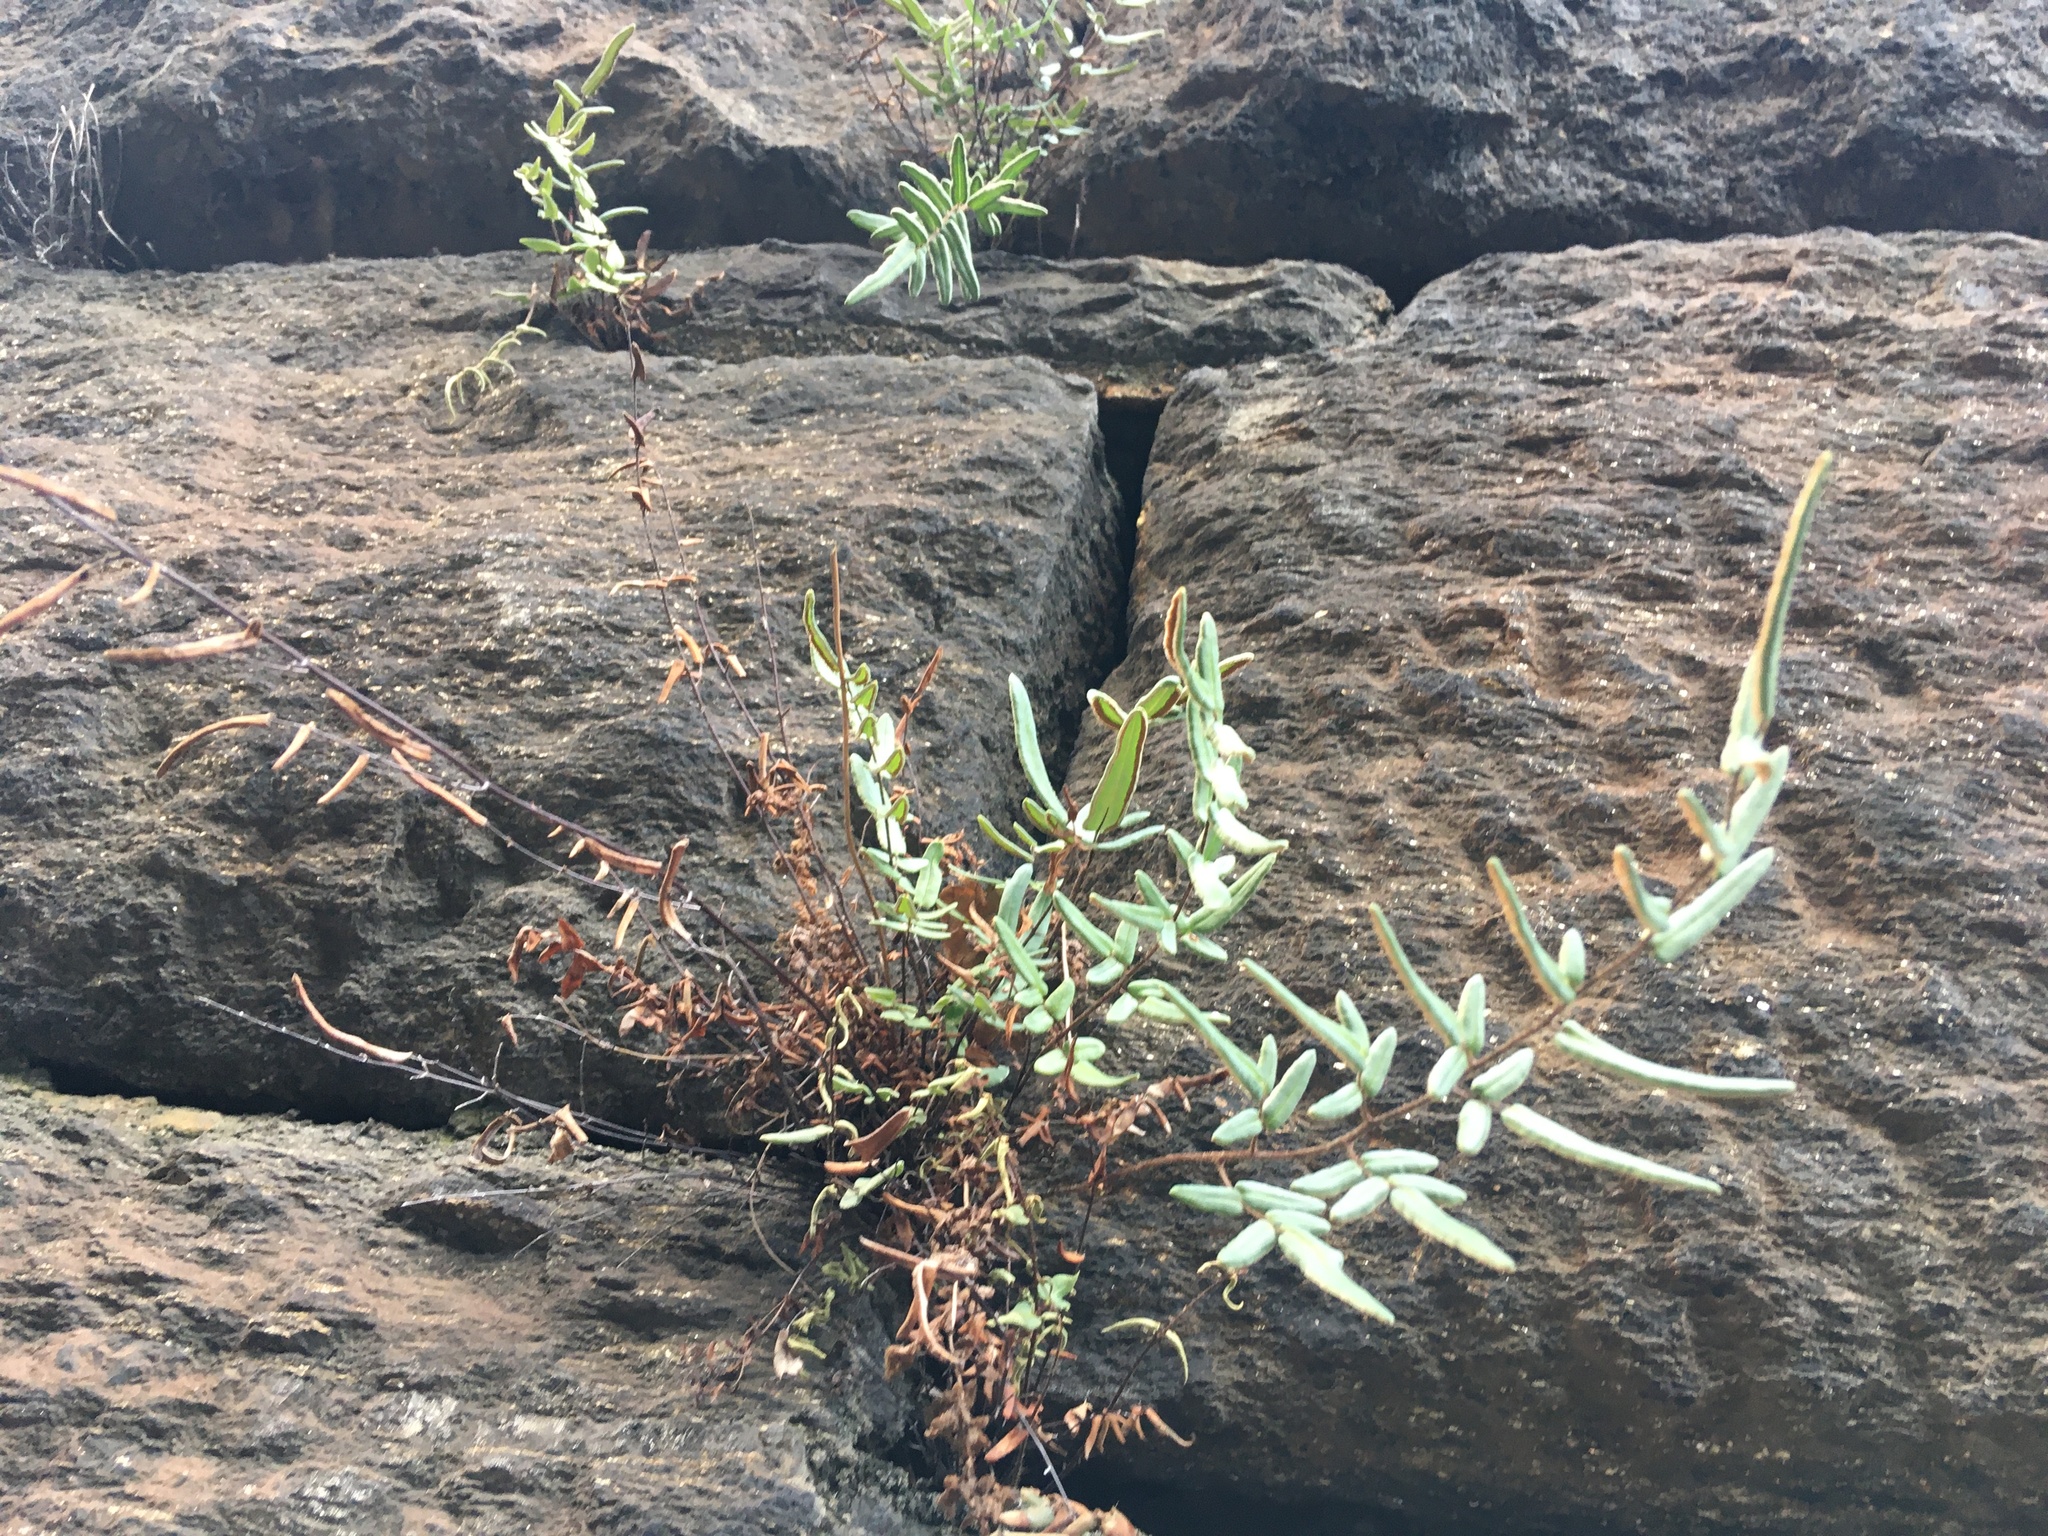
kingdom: Plantae
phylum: Tracheophyta
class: Polypodiopsida
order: Polypodiales
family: Pteridaceae
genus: Pellaea
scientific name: Pellaea atropurpurea
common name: Hairy cliffbrake
